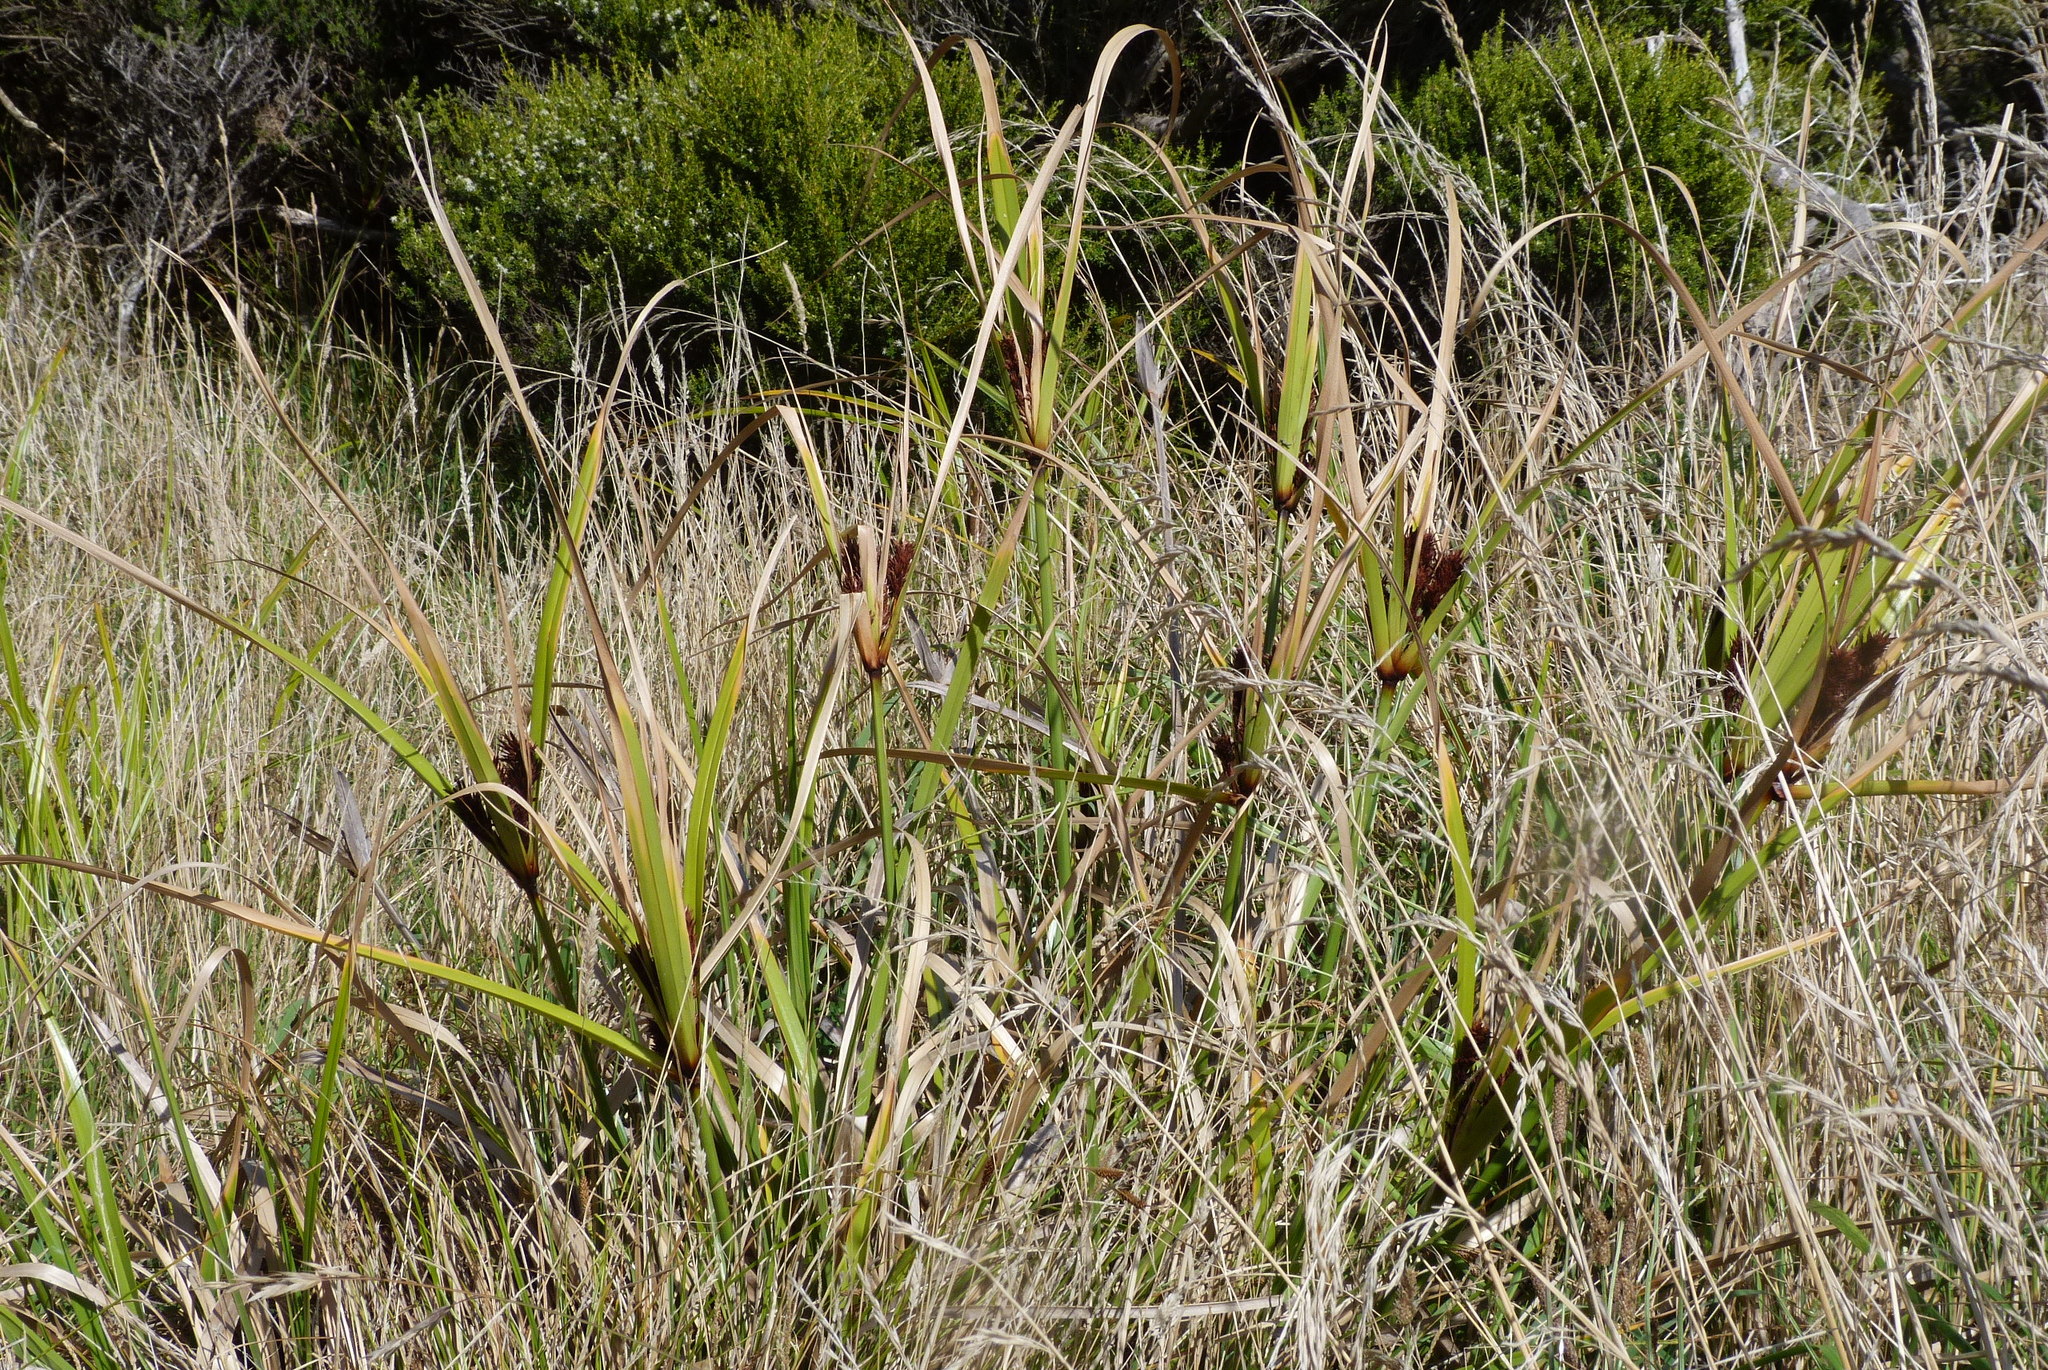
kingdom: Plantae
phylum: Tracheophyta
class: Liliopsida
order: Poales
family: Cyperaceae
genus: Cyperus
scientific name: Cyperus ustulatus
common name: Giant umbrella-sedge
